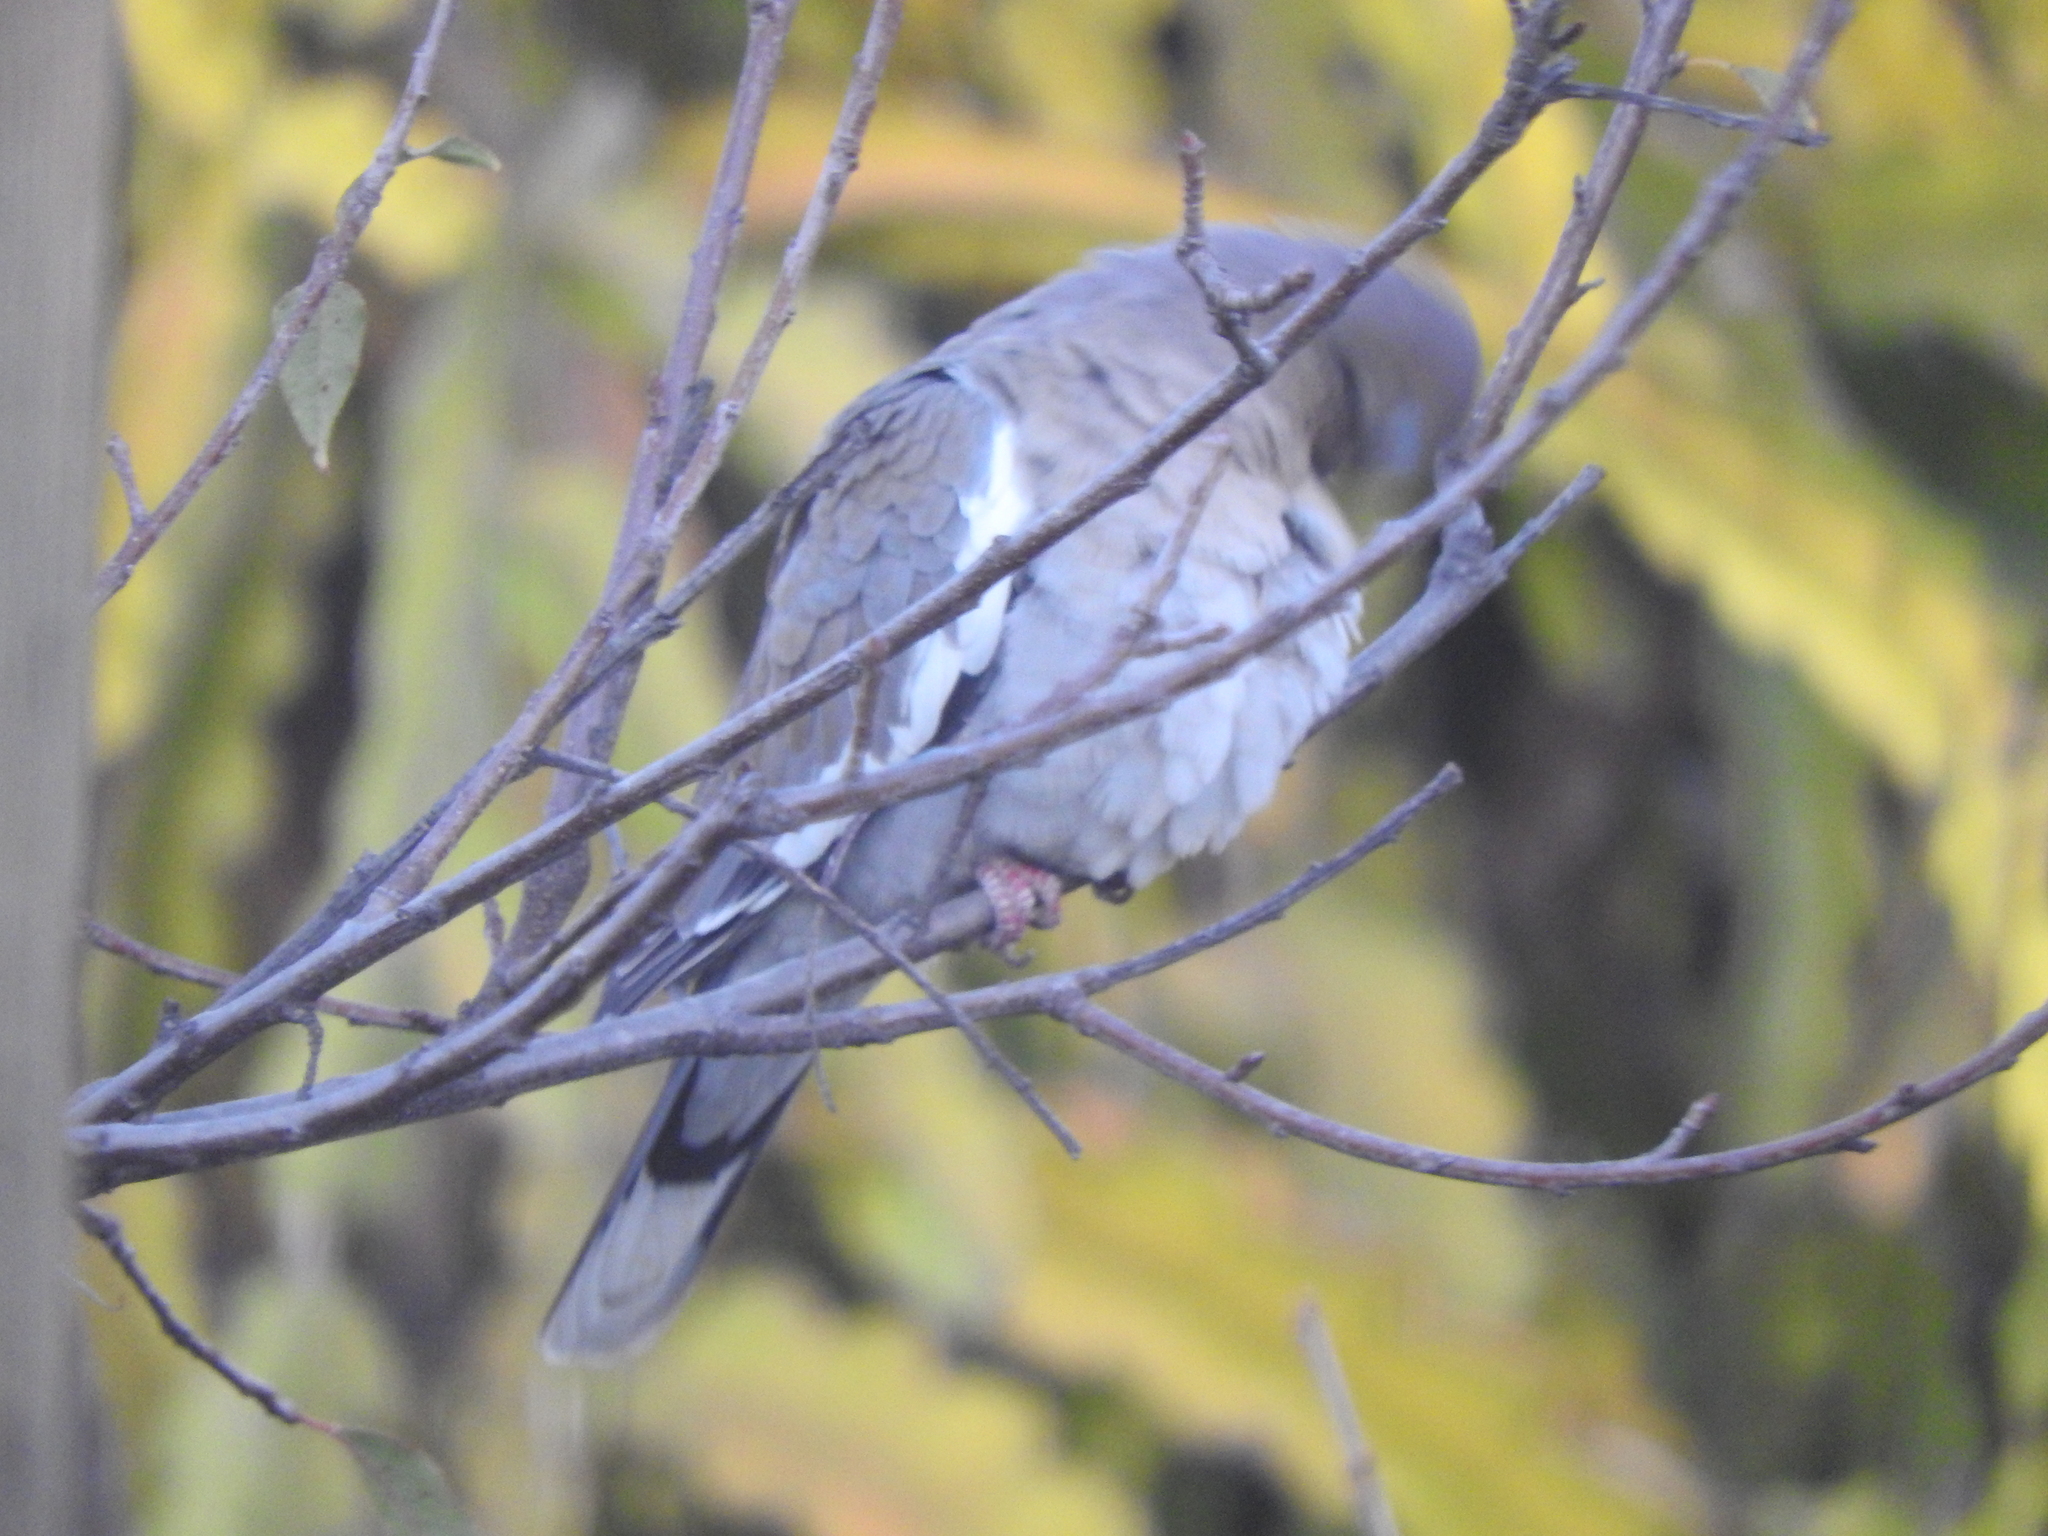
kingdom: Animalia
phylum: Chordata
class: Aves
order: Columbiformes
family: Columbidae
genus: Zenaida
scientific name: Zenaida asiatica
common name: White-winged dove
